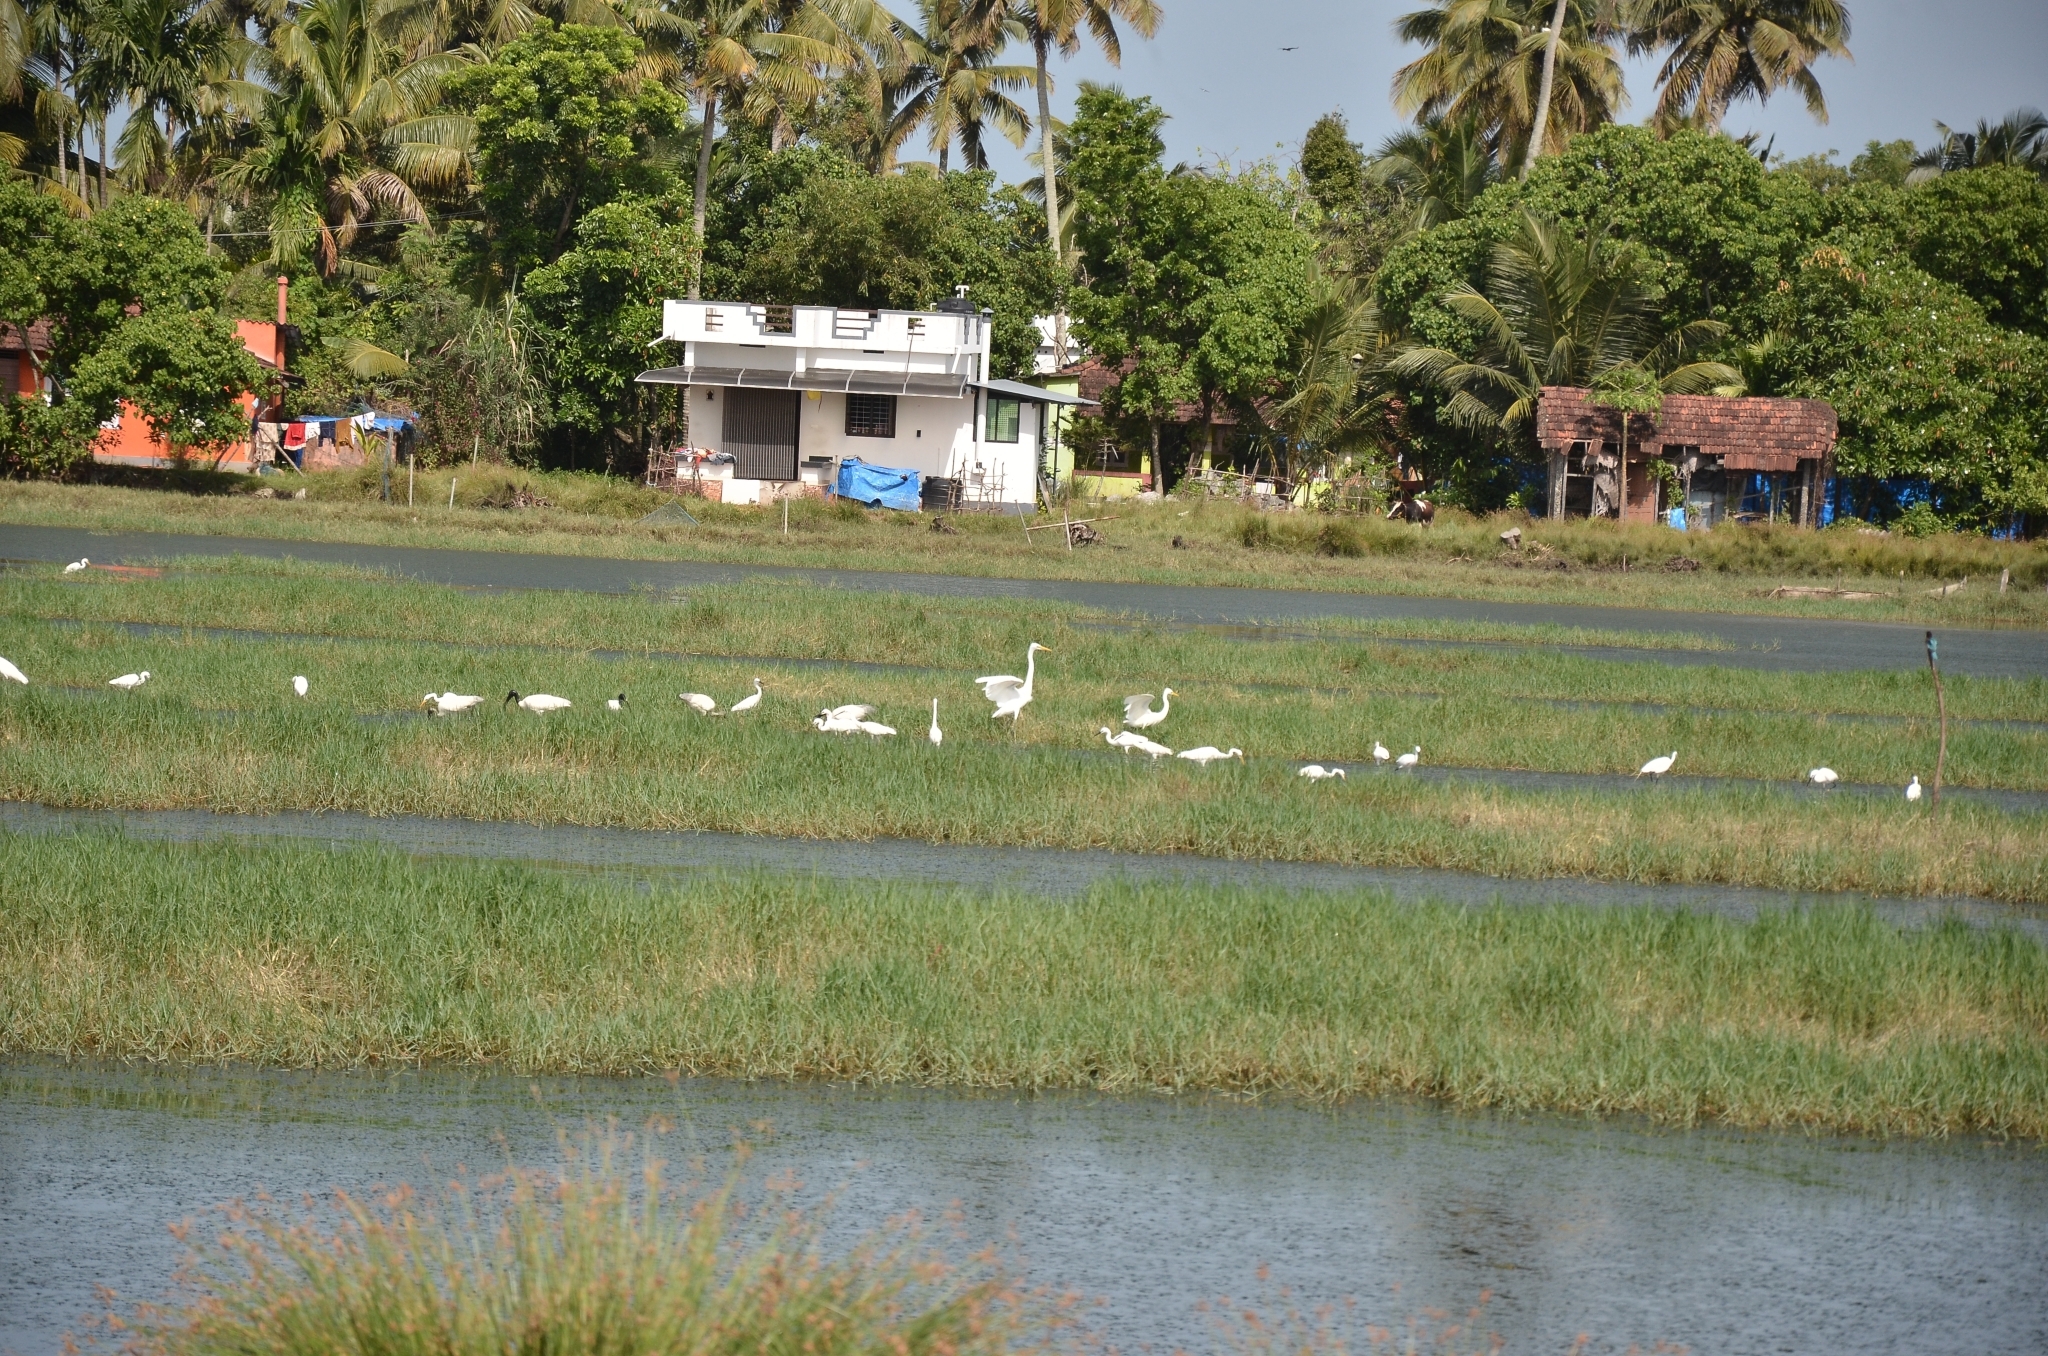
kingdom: Animalia
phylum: Chordata
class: Aves
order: Pelecaniformes
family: Ardeidae
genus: Egretta
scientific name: Egretta intermedia
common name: Intermediate egret
